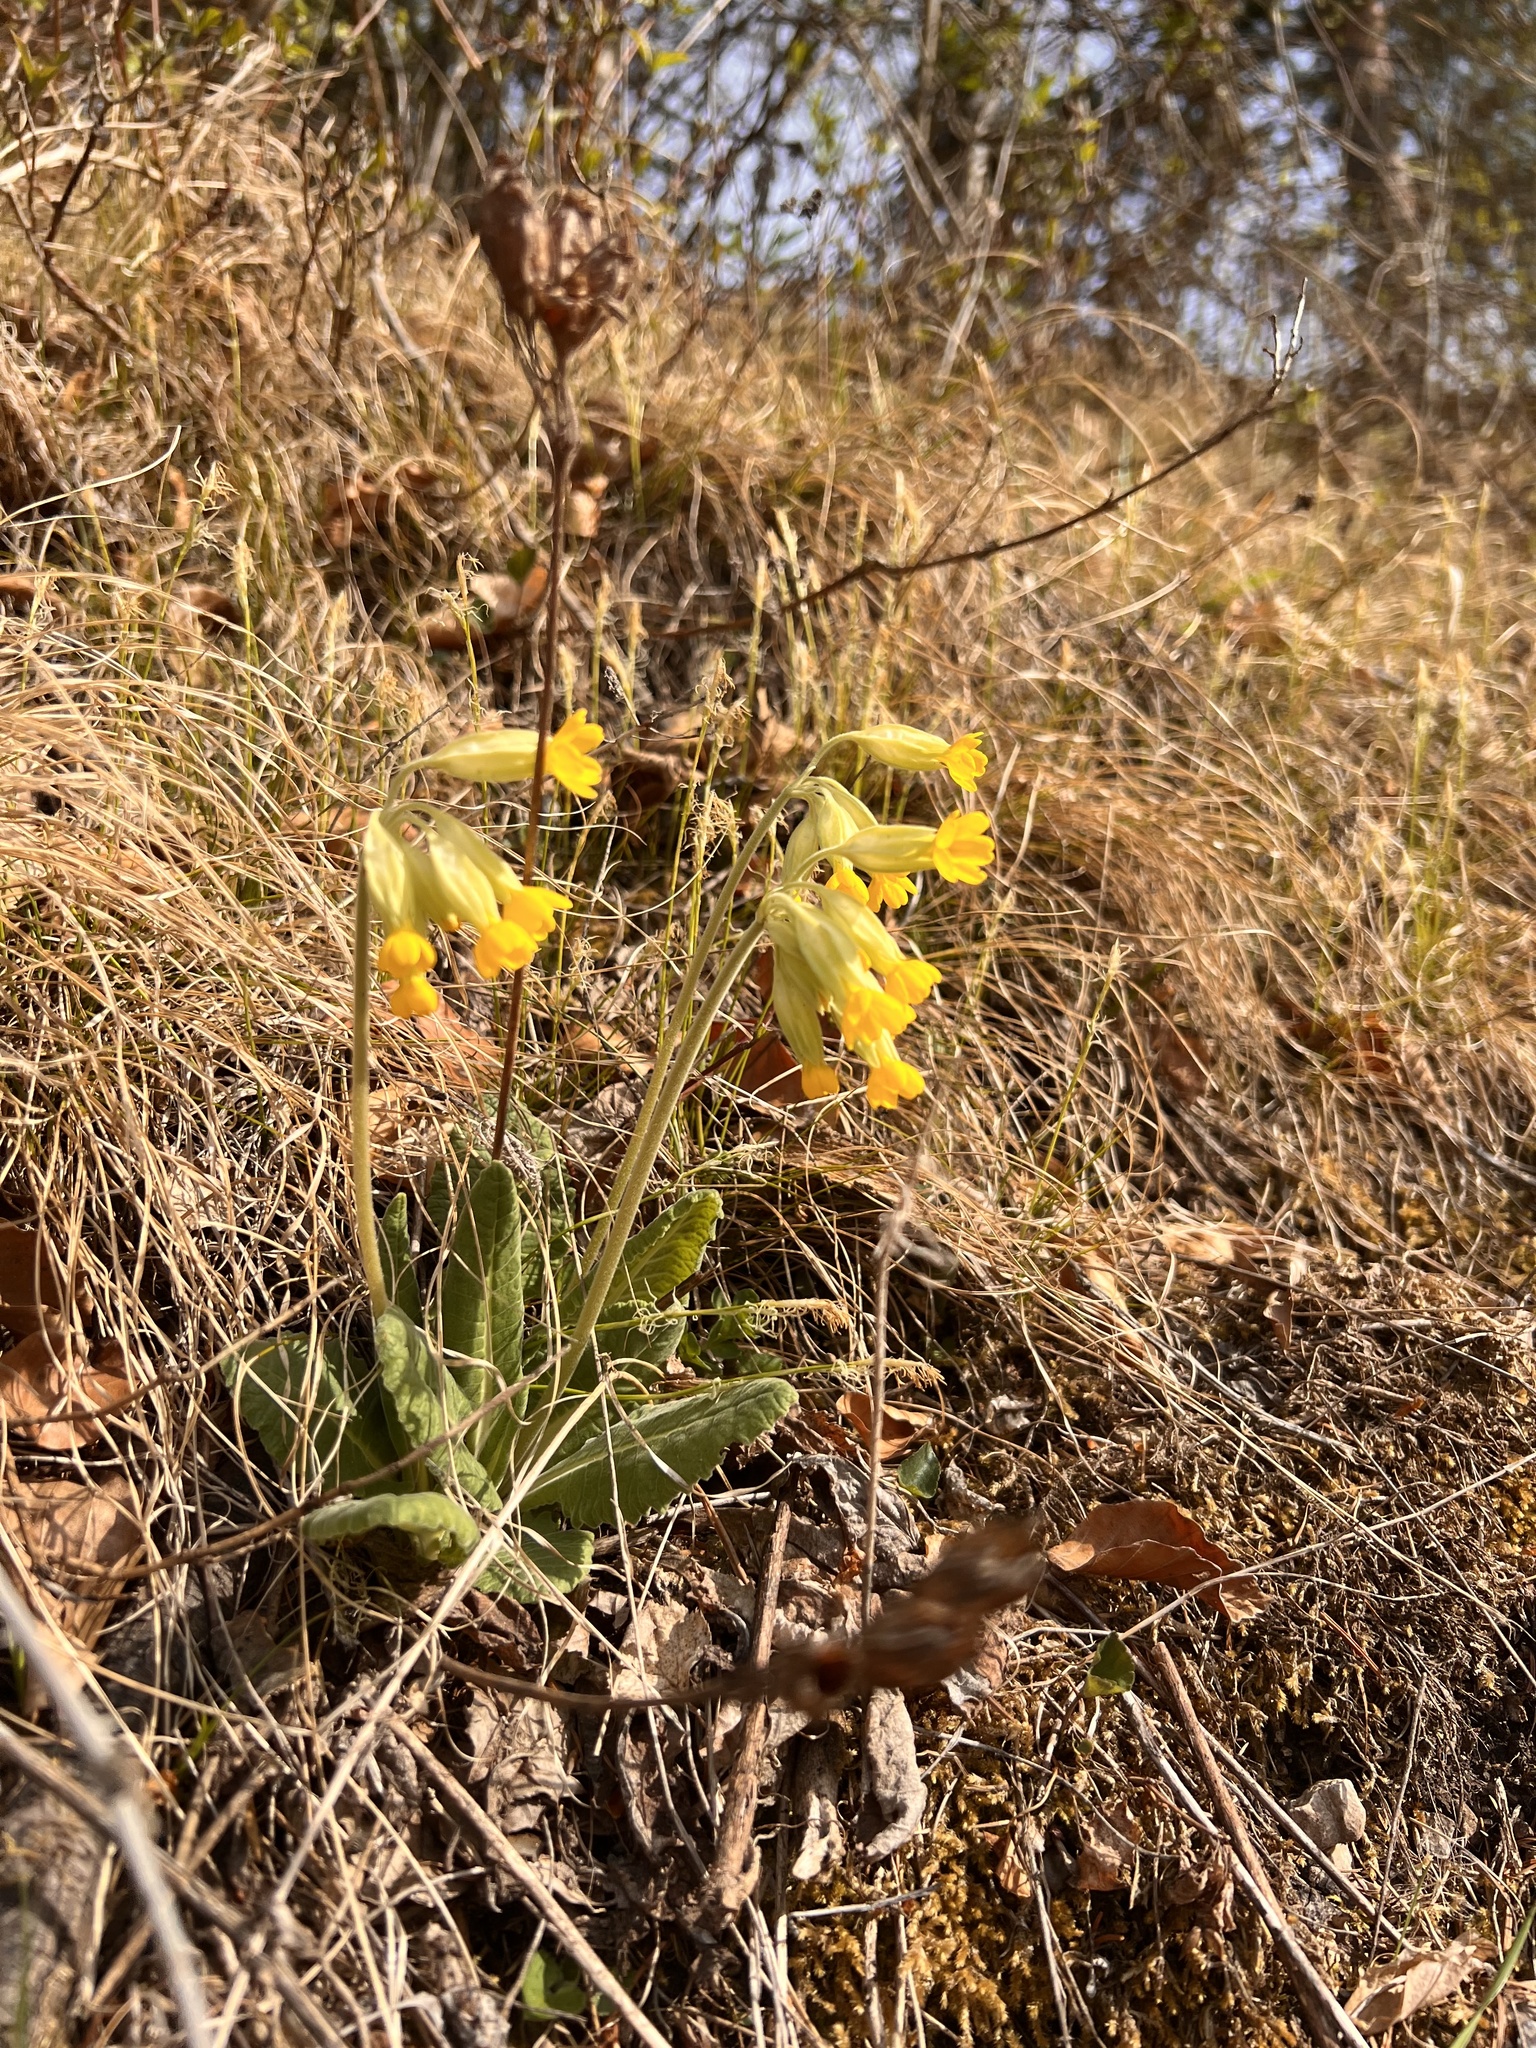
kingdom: Plantae
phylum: Tracheophyta
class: Magnoliopsida
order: Ericales
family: Primulaceae
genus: Primula
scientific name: Primula veris
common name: Cowslip
